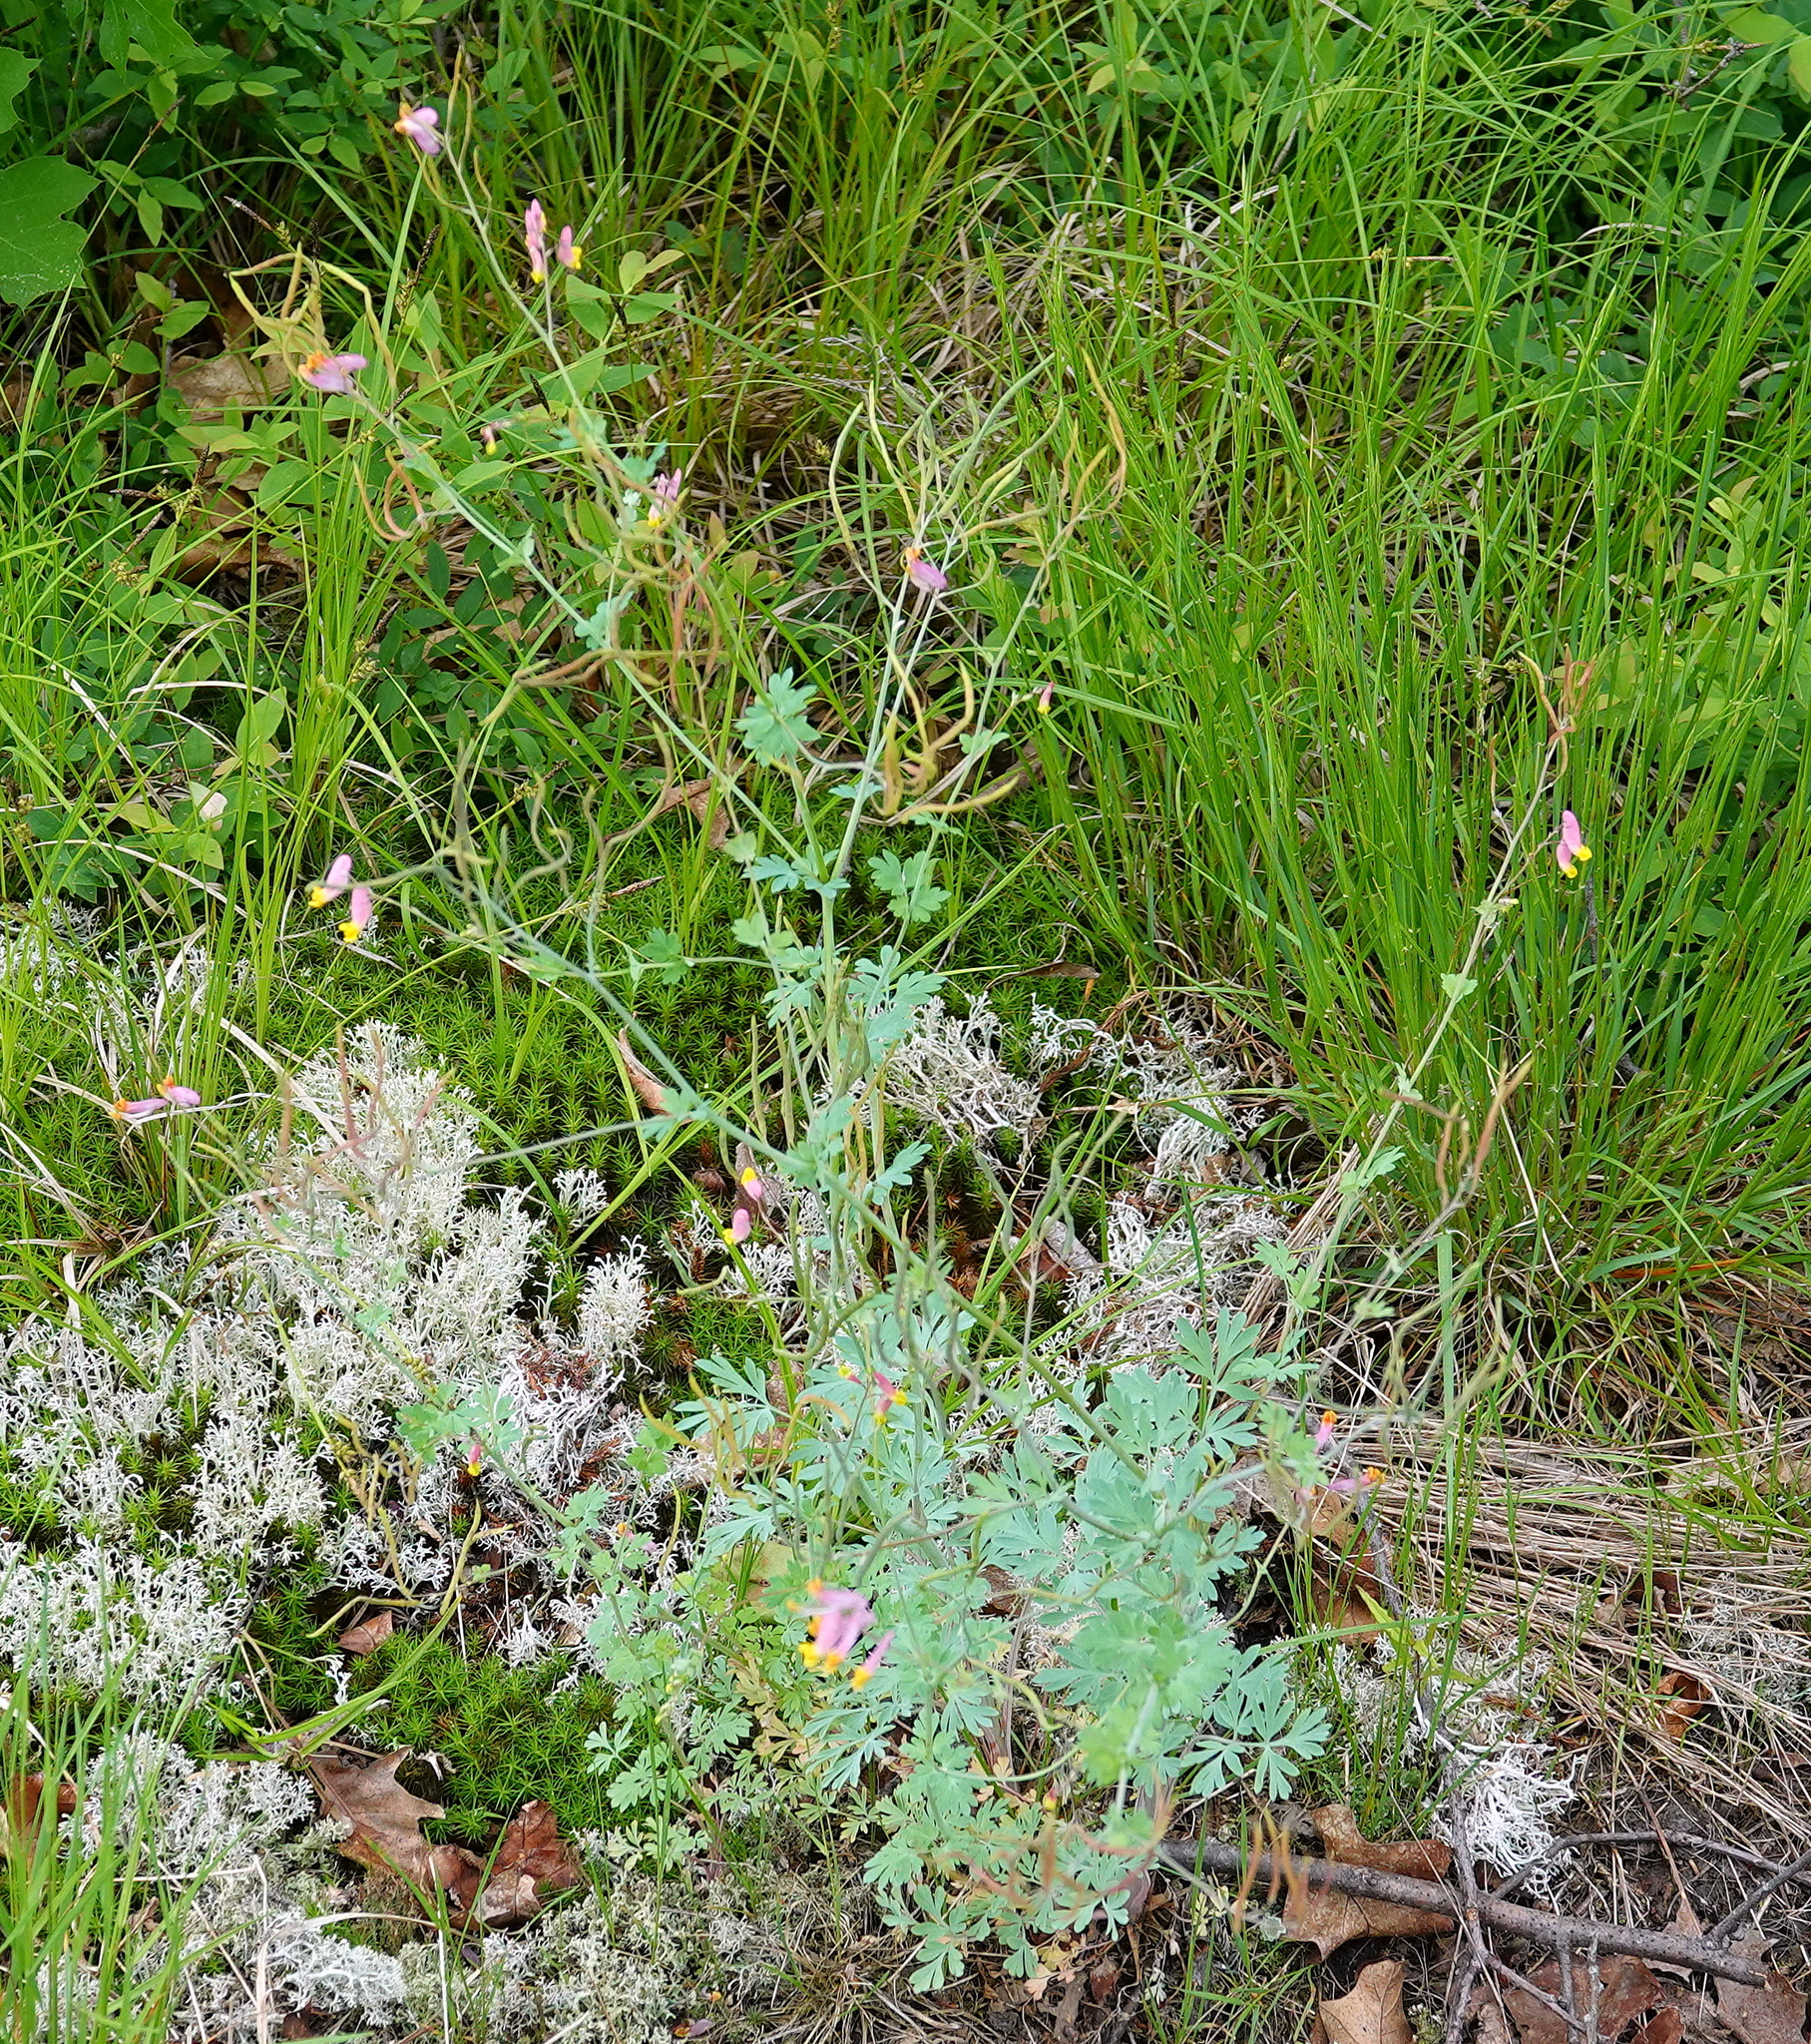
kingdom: Plantae
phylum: Tracheophyta
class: Magnoliopsida
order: Ranunculales
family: Papaveraceae
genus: Capnoides
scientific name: Capnoides sempervirens
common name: Rock harlequin
